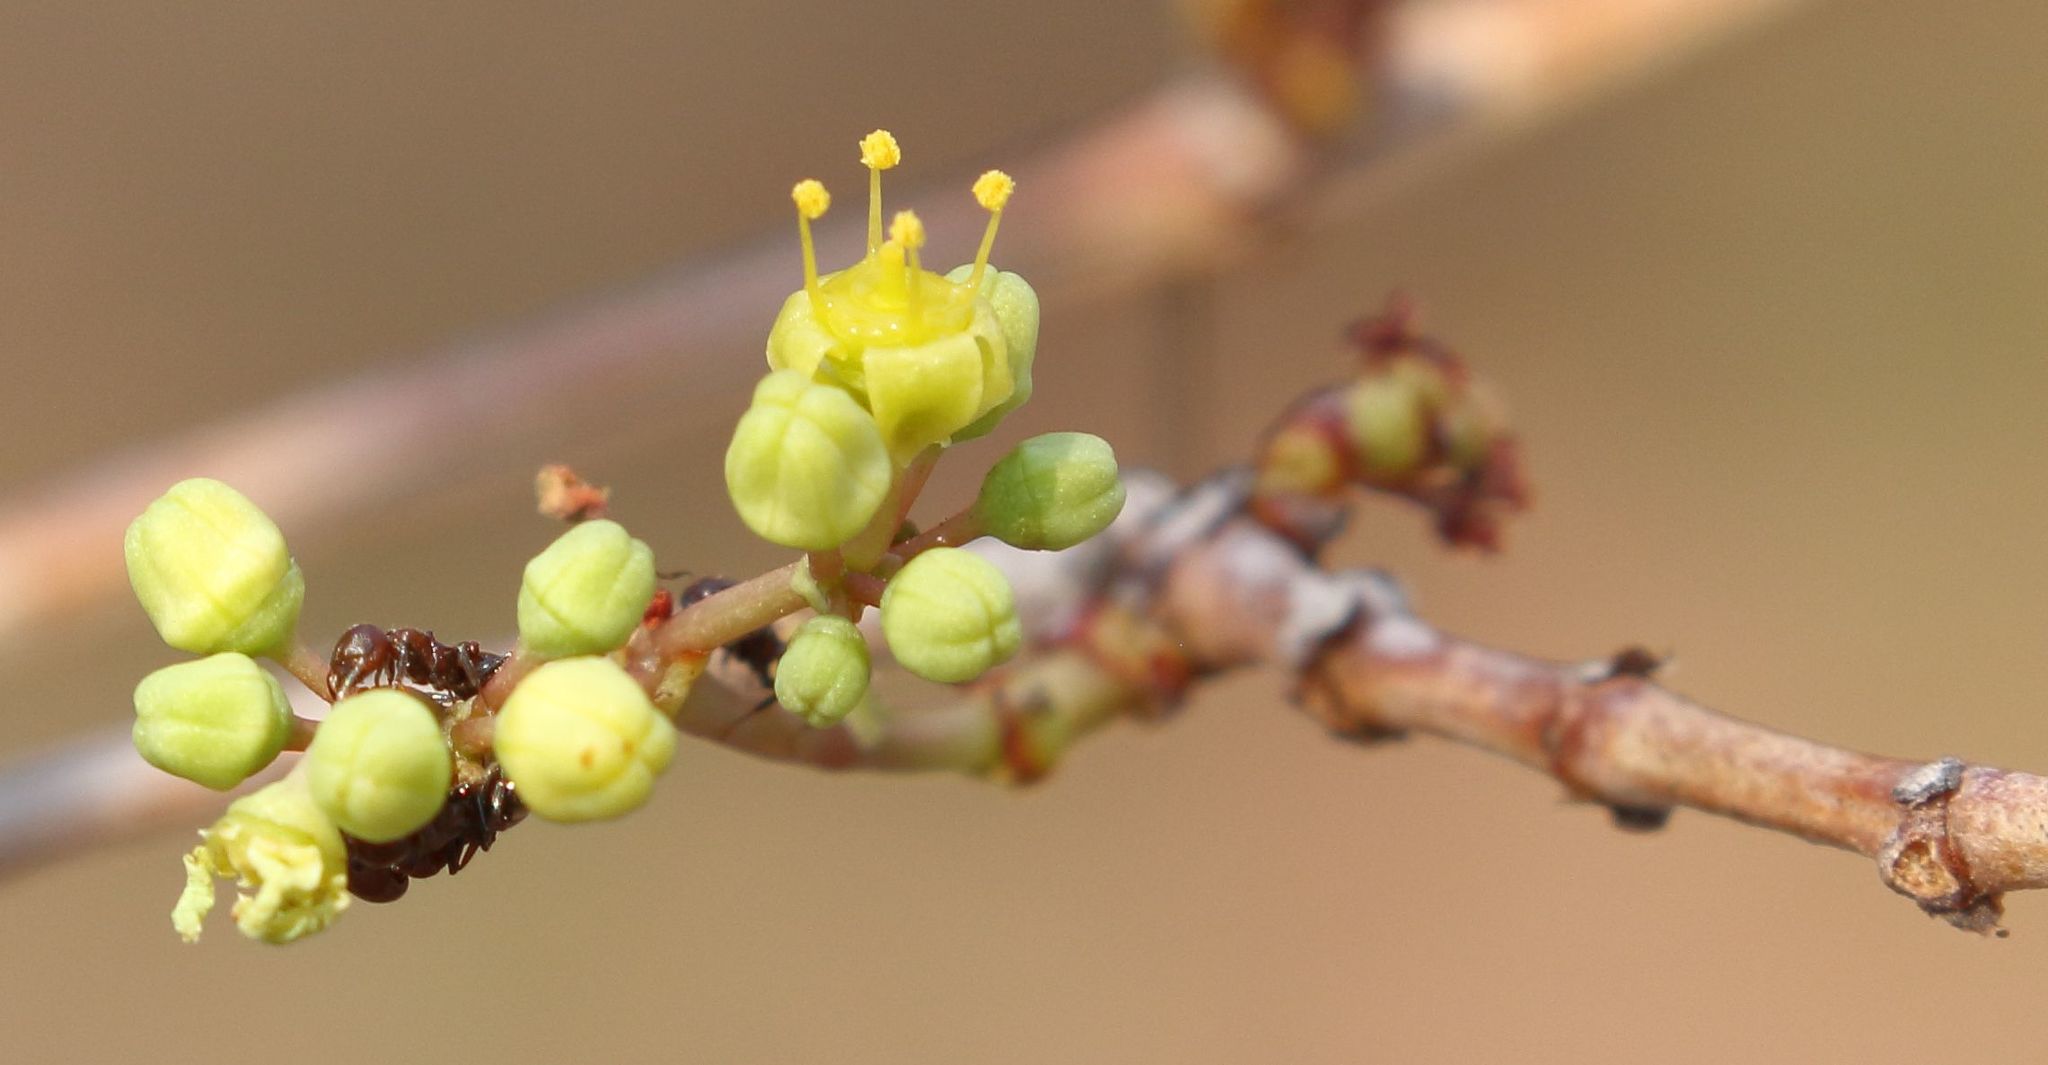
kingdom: Plantae
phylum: Tracheophyta
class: Magnoliopsida
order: Vitales
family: Vitaceae
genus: Cissus
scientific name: Cissus cornifolia
